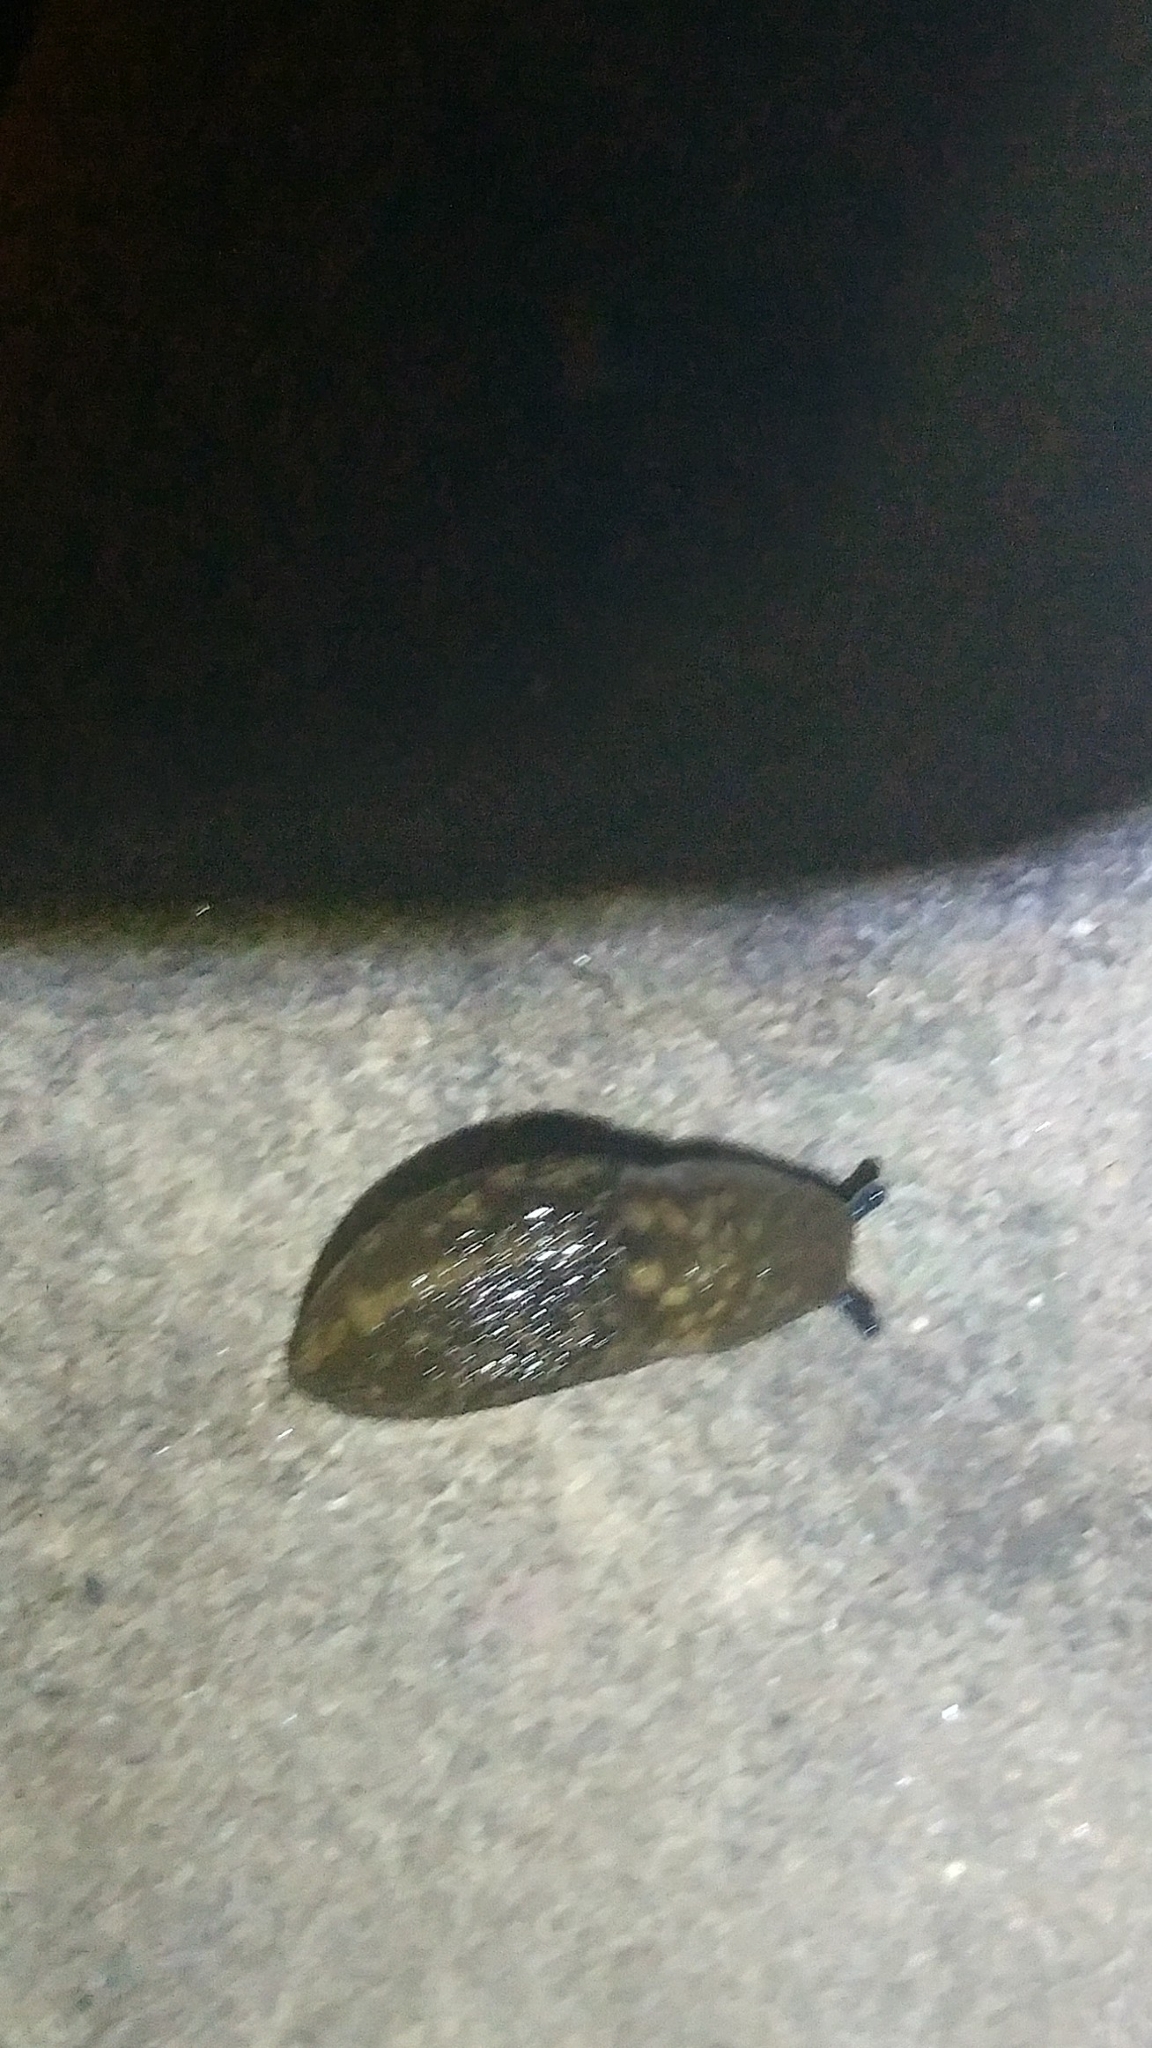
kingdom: Animalia
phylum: Mollusca
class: Gastropoda
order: Stylommatophora
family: Limacidae
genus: Limacus
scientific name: Limacus flavus
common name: Yellow gardenslug
